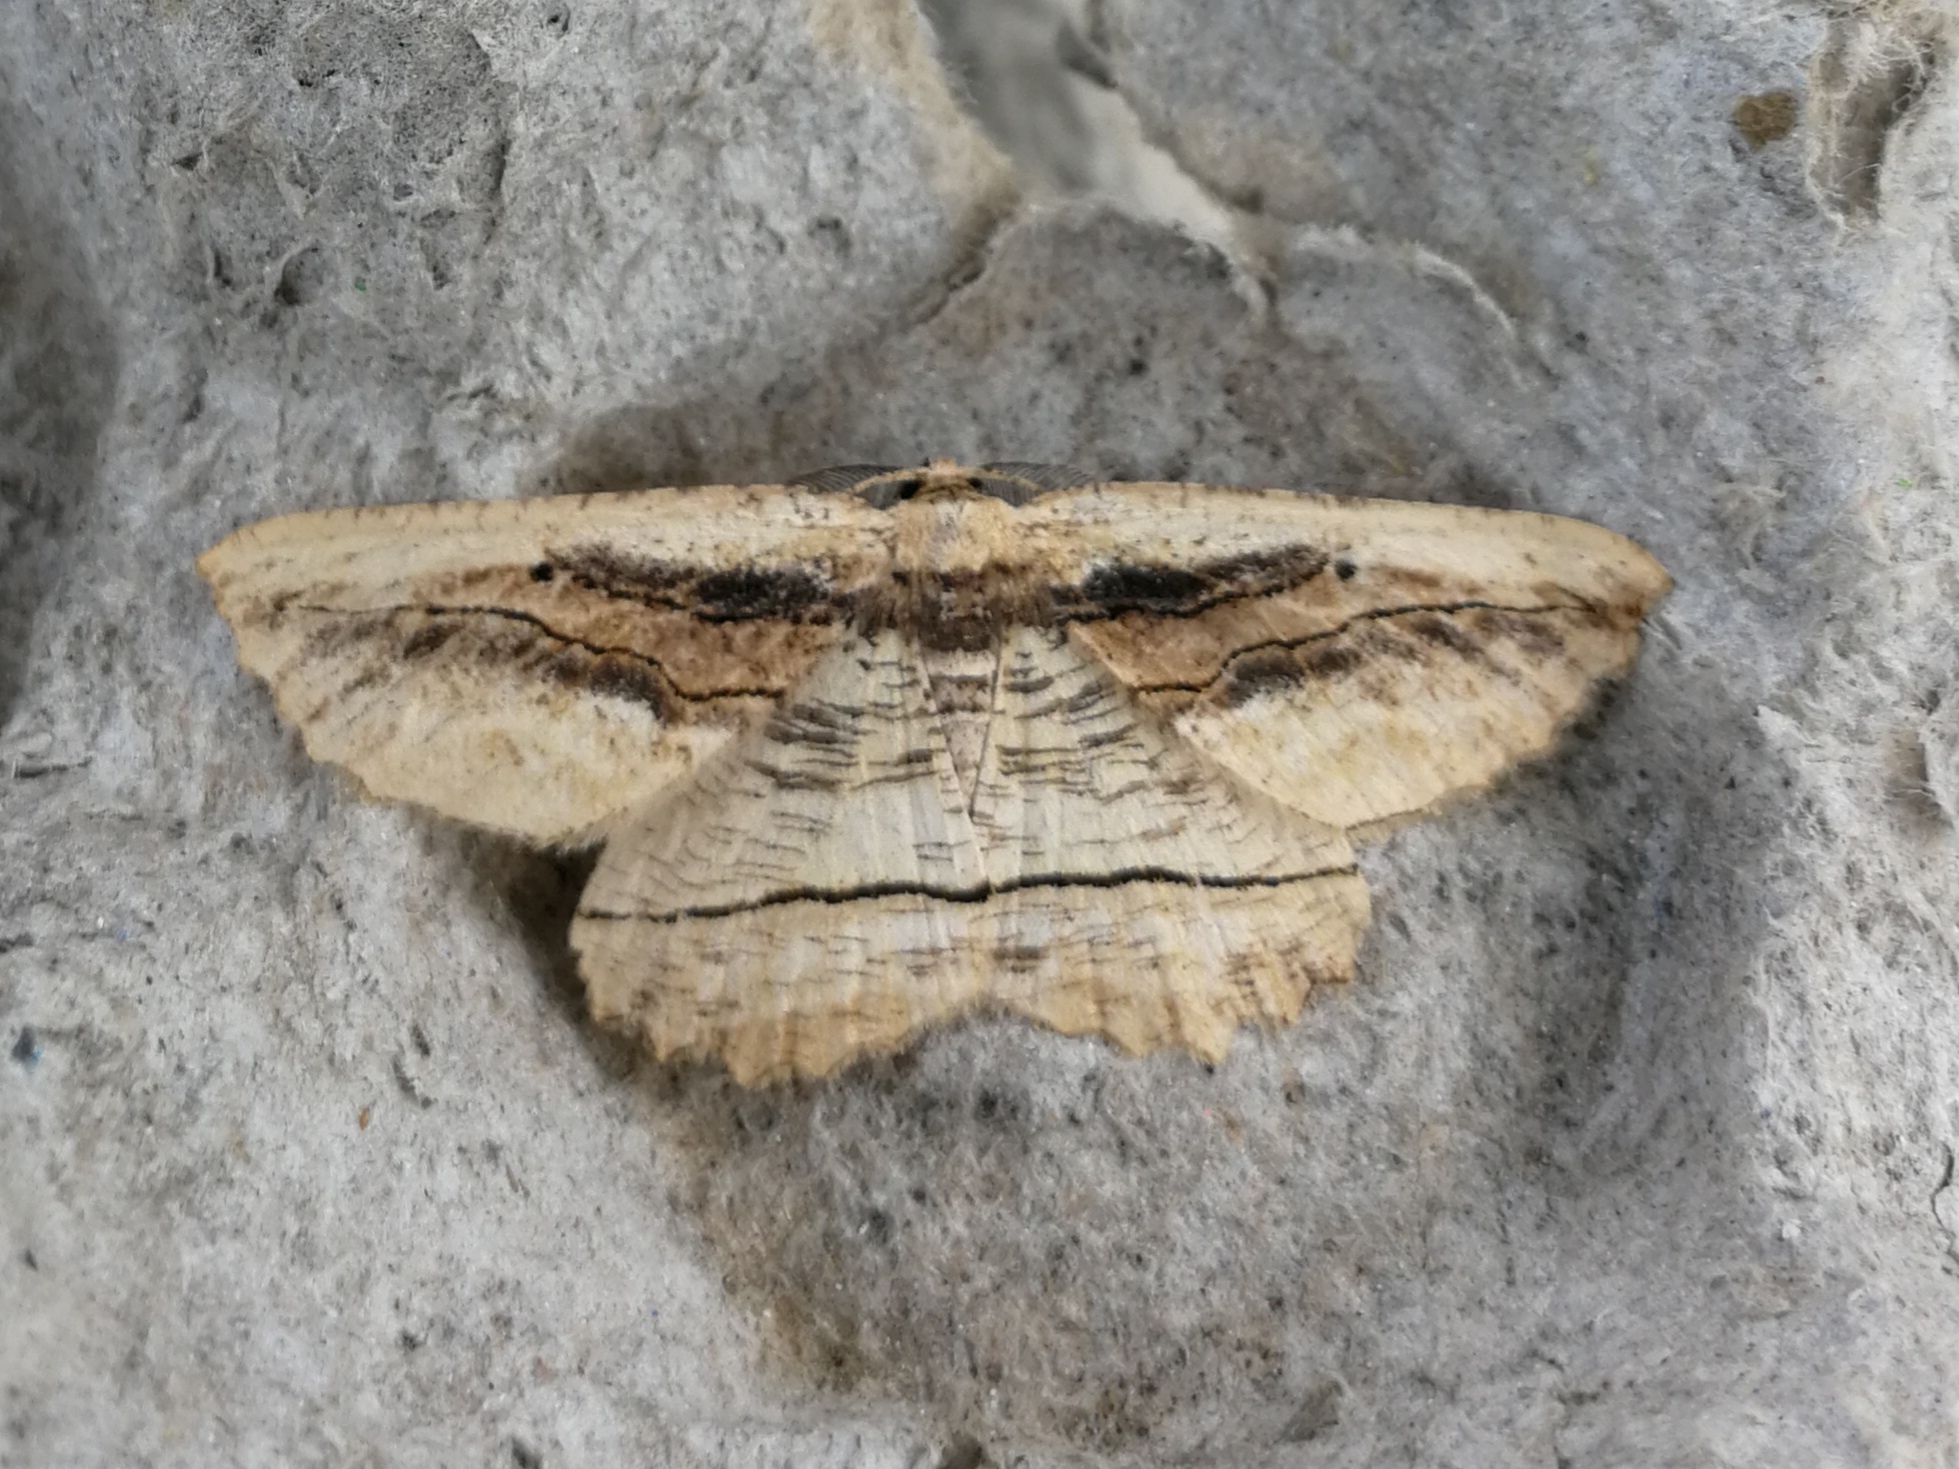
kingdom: Animalia
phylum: Arthropoda
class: Insecta
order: Lepidoptera
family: Geometridae
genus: Menophra
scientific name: Menophra nycthemeraria
